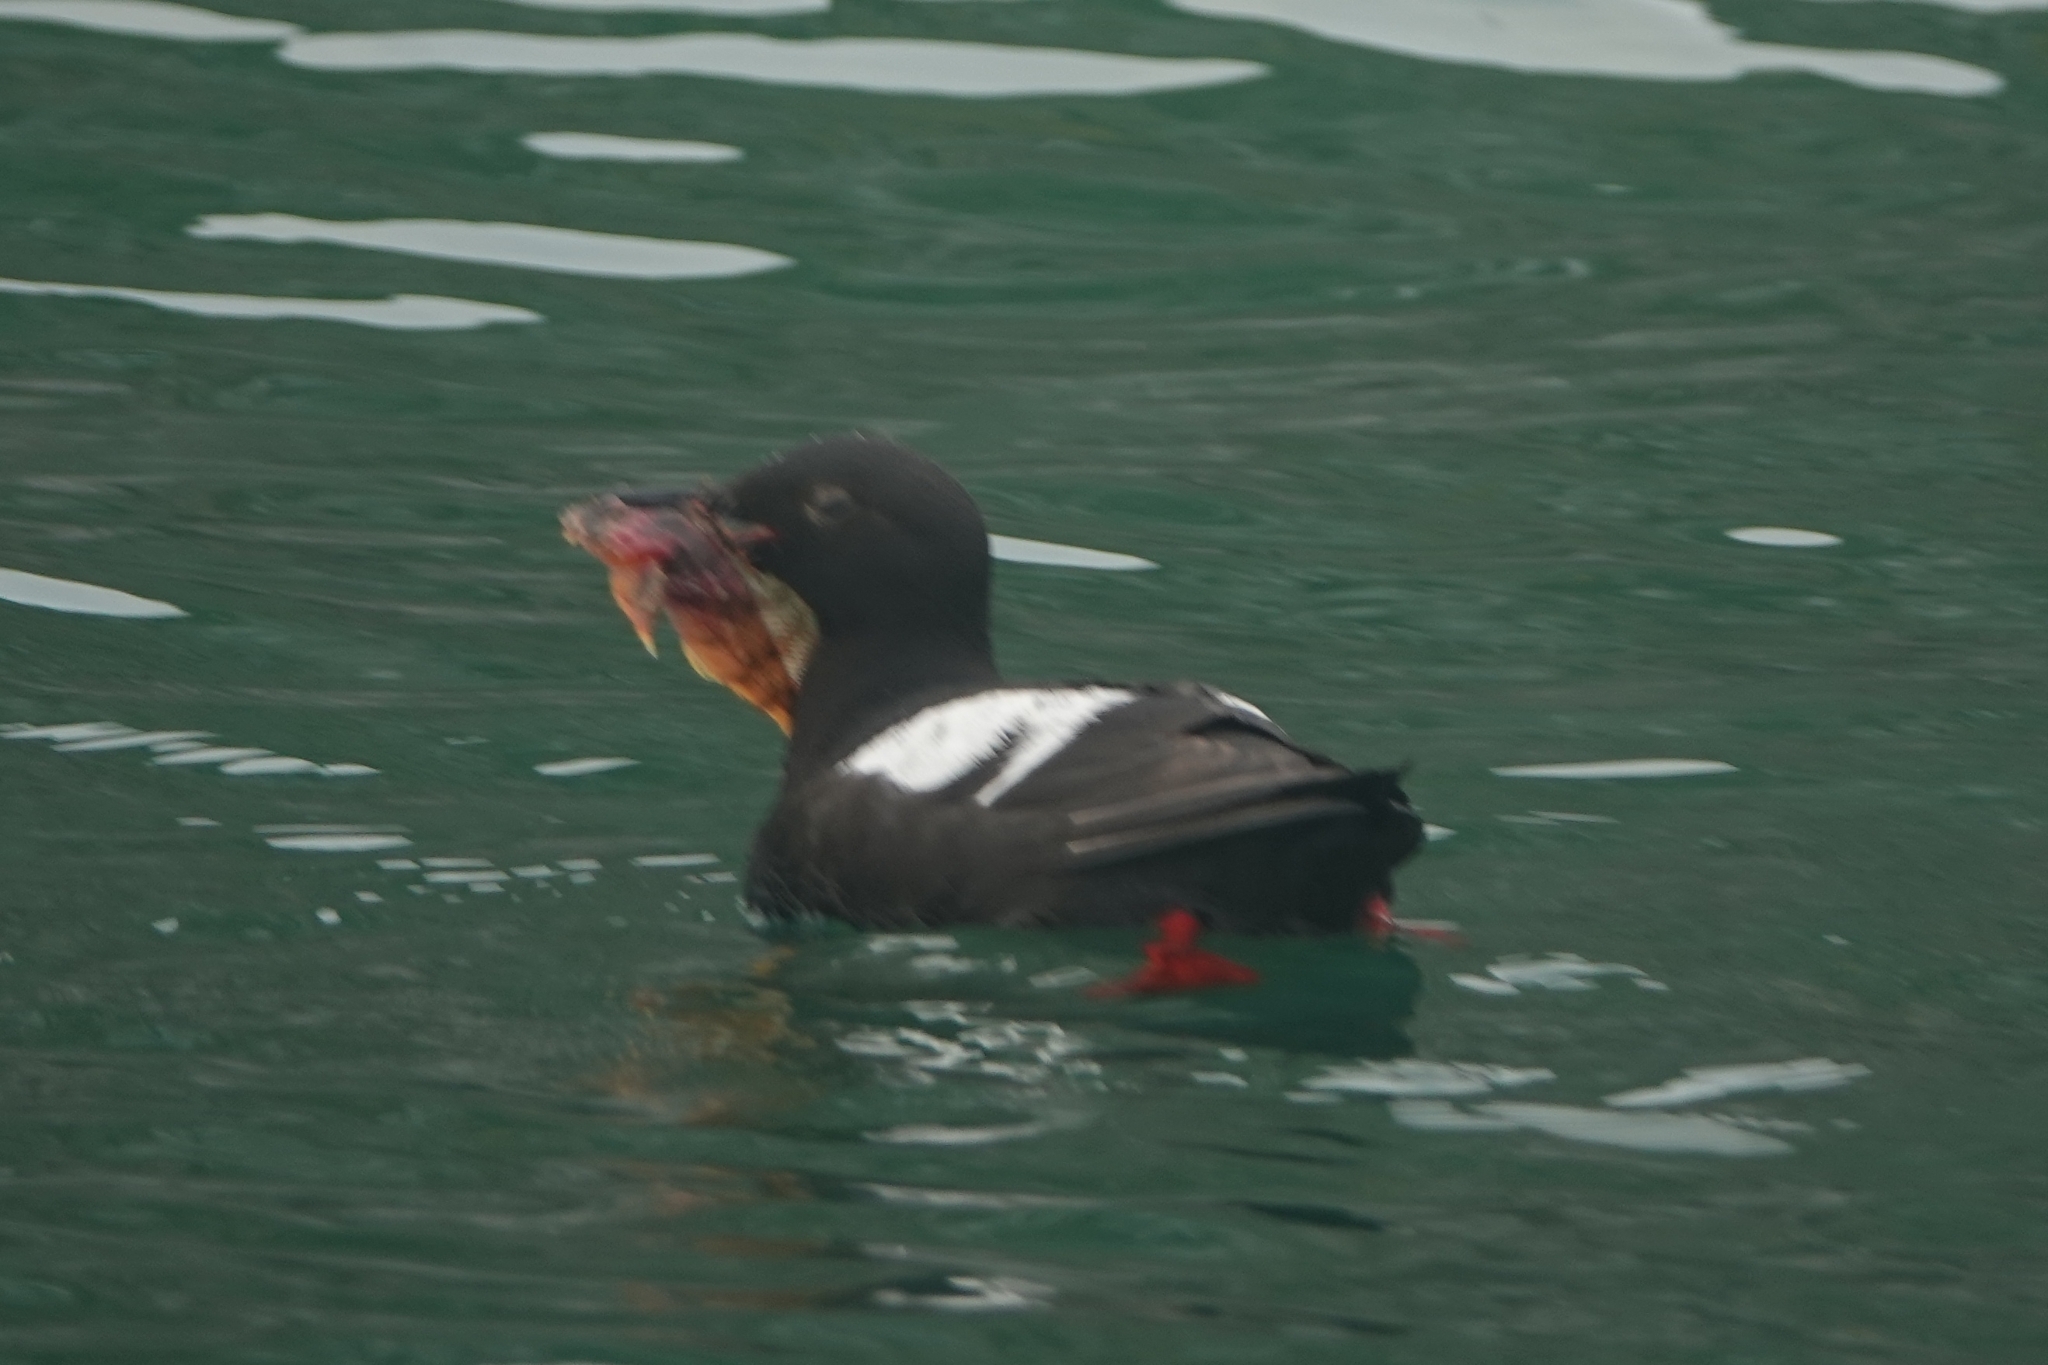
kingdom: Animalia
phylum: Chordata
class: Aves
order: Charadriiformes
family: Alcidae
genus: Cepphus
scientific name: Cepphus columba
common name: Pigeon guillemot
